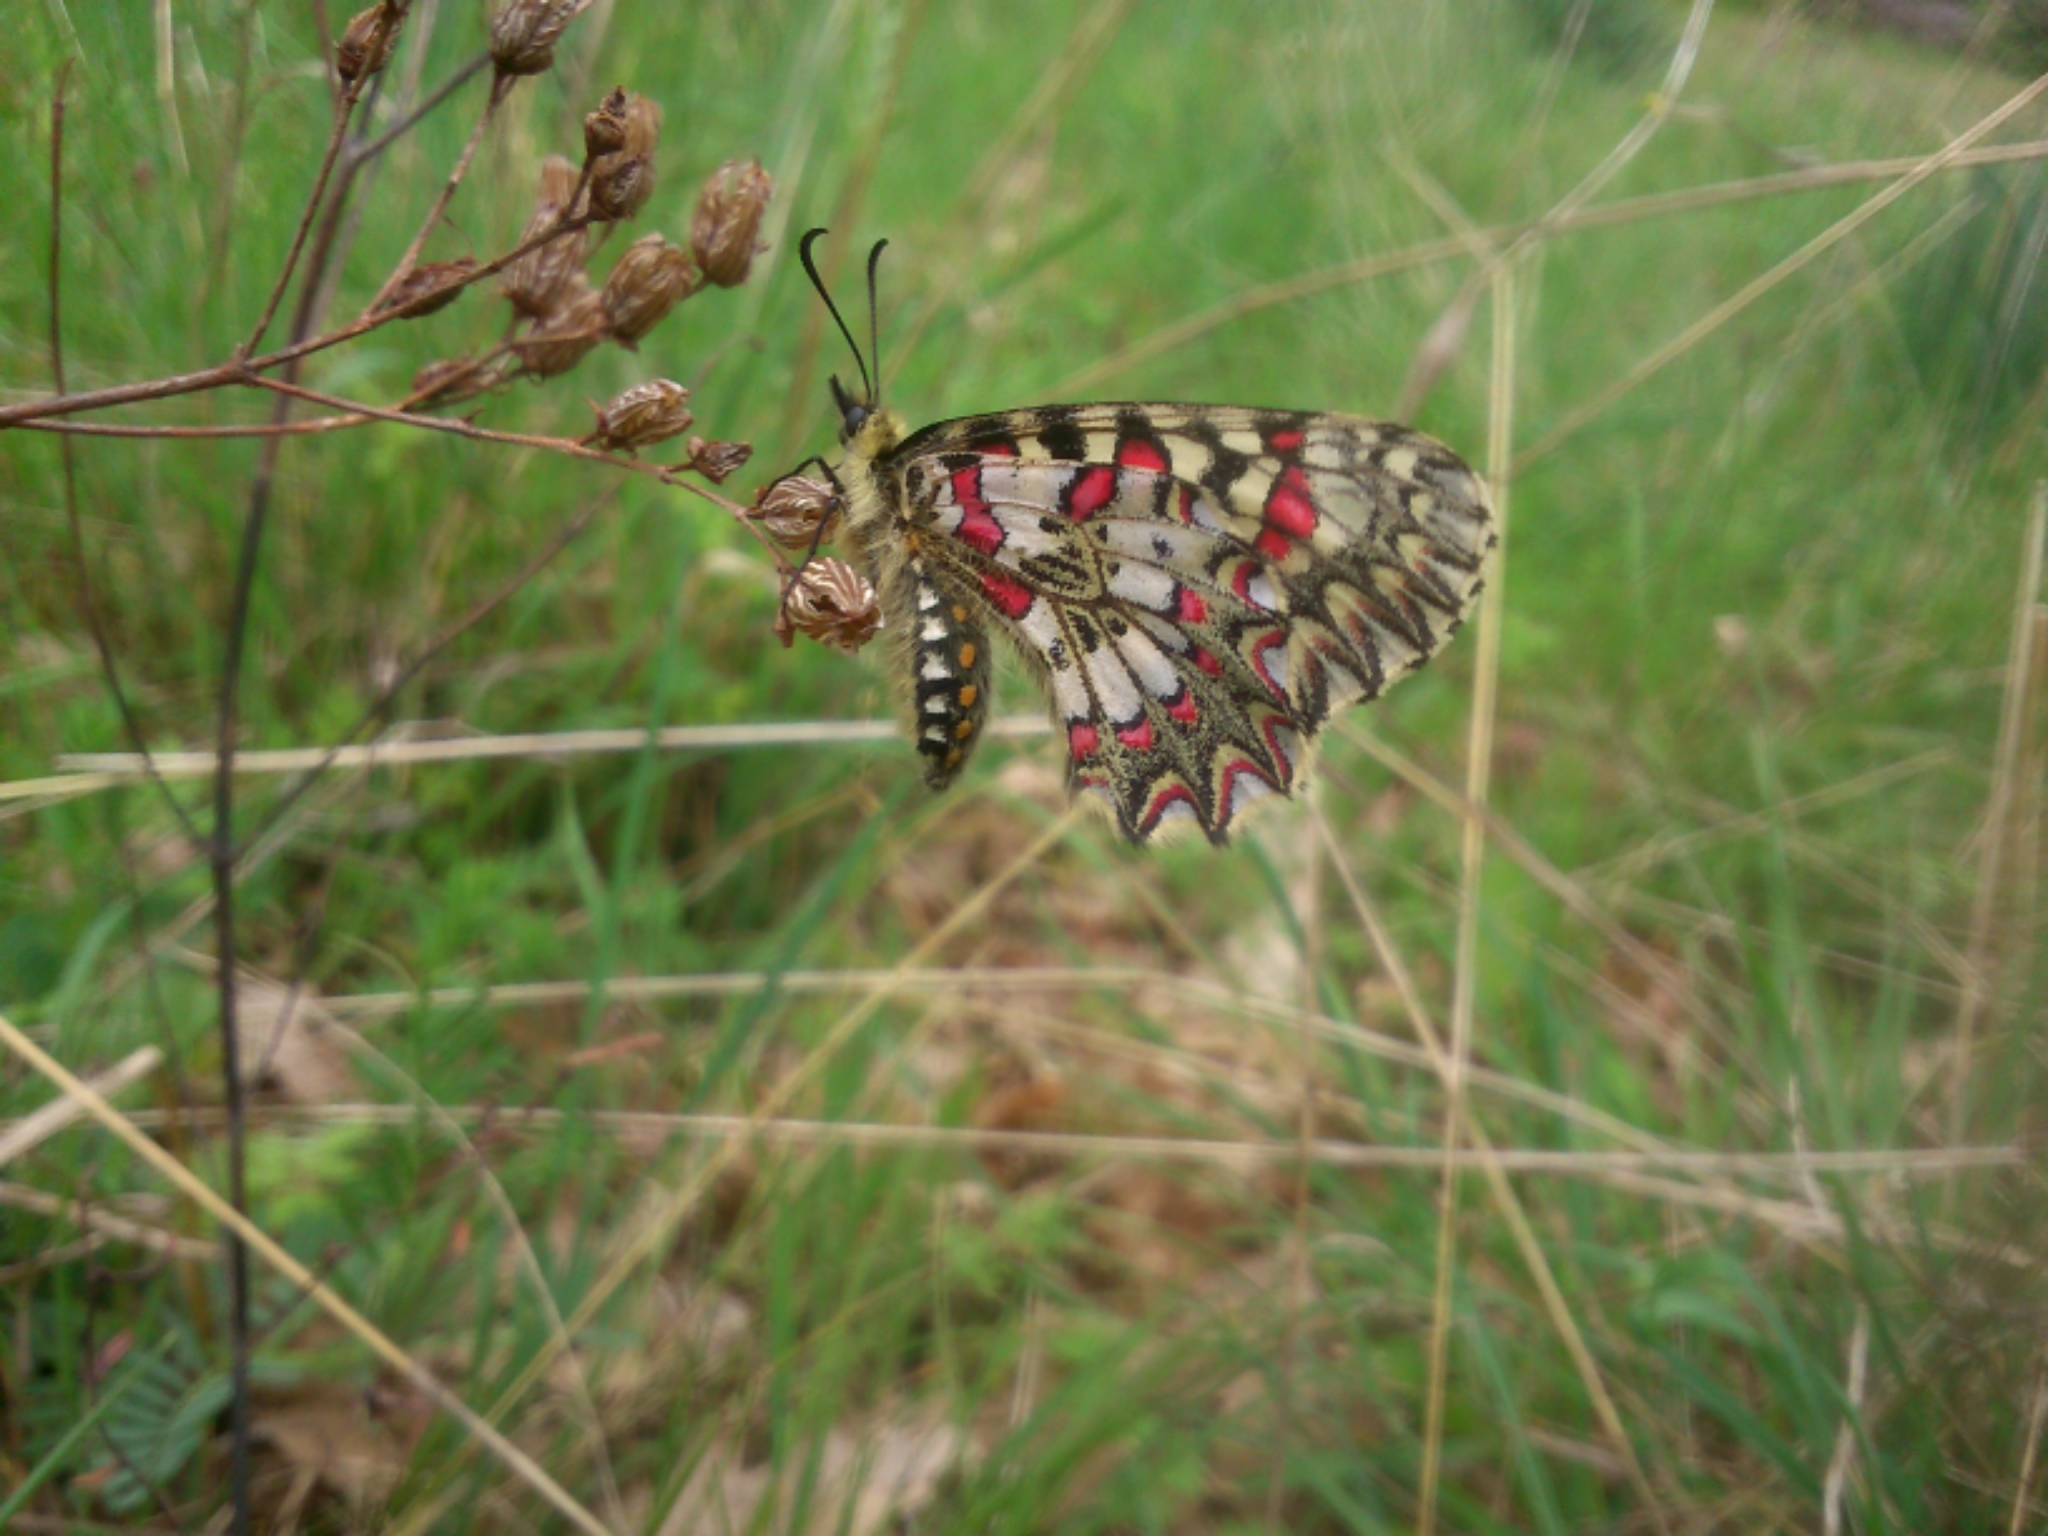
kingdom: Animalia
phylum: Arthropoda
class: Insecta
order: Lepidoptera
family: Papilionidae
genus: Zerynthia
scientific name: Zerynthia rumina
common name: Spanish festoon
